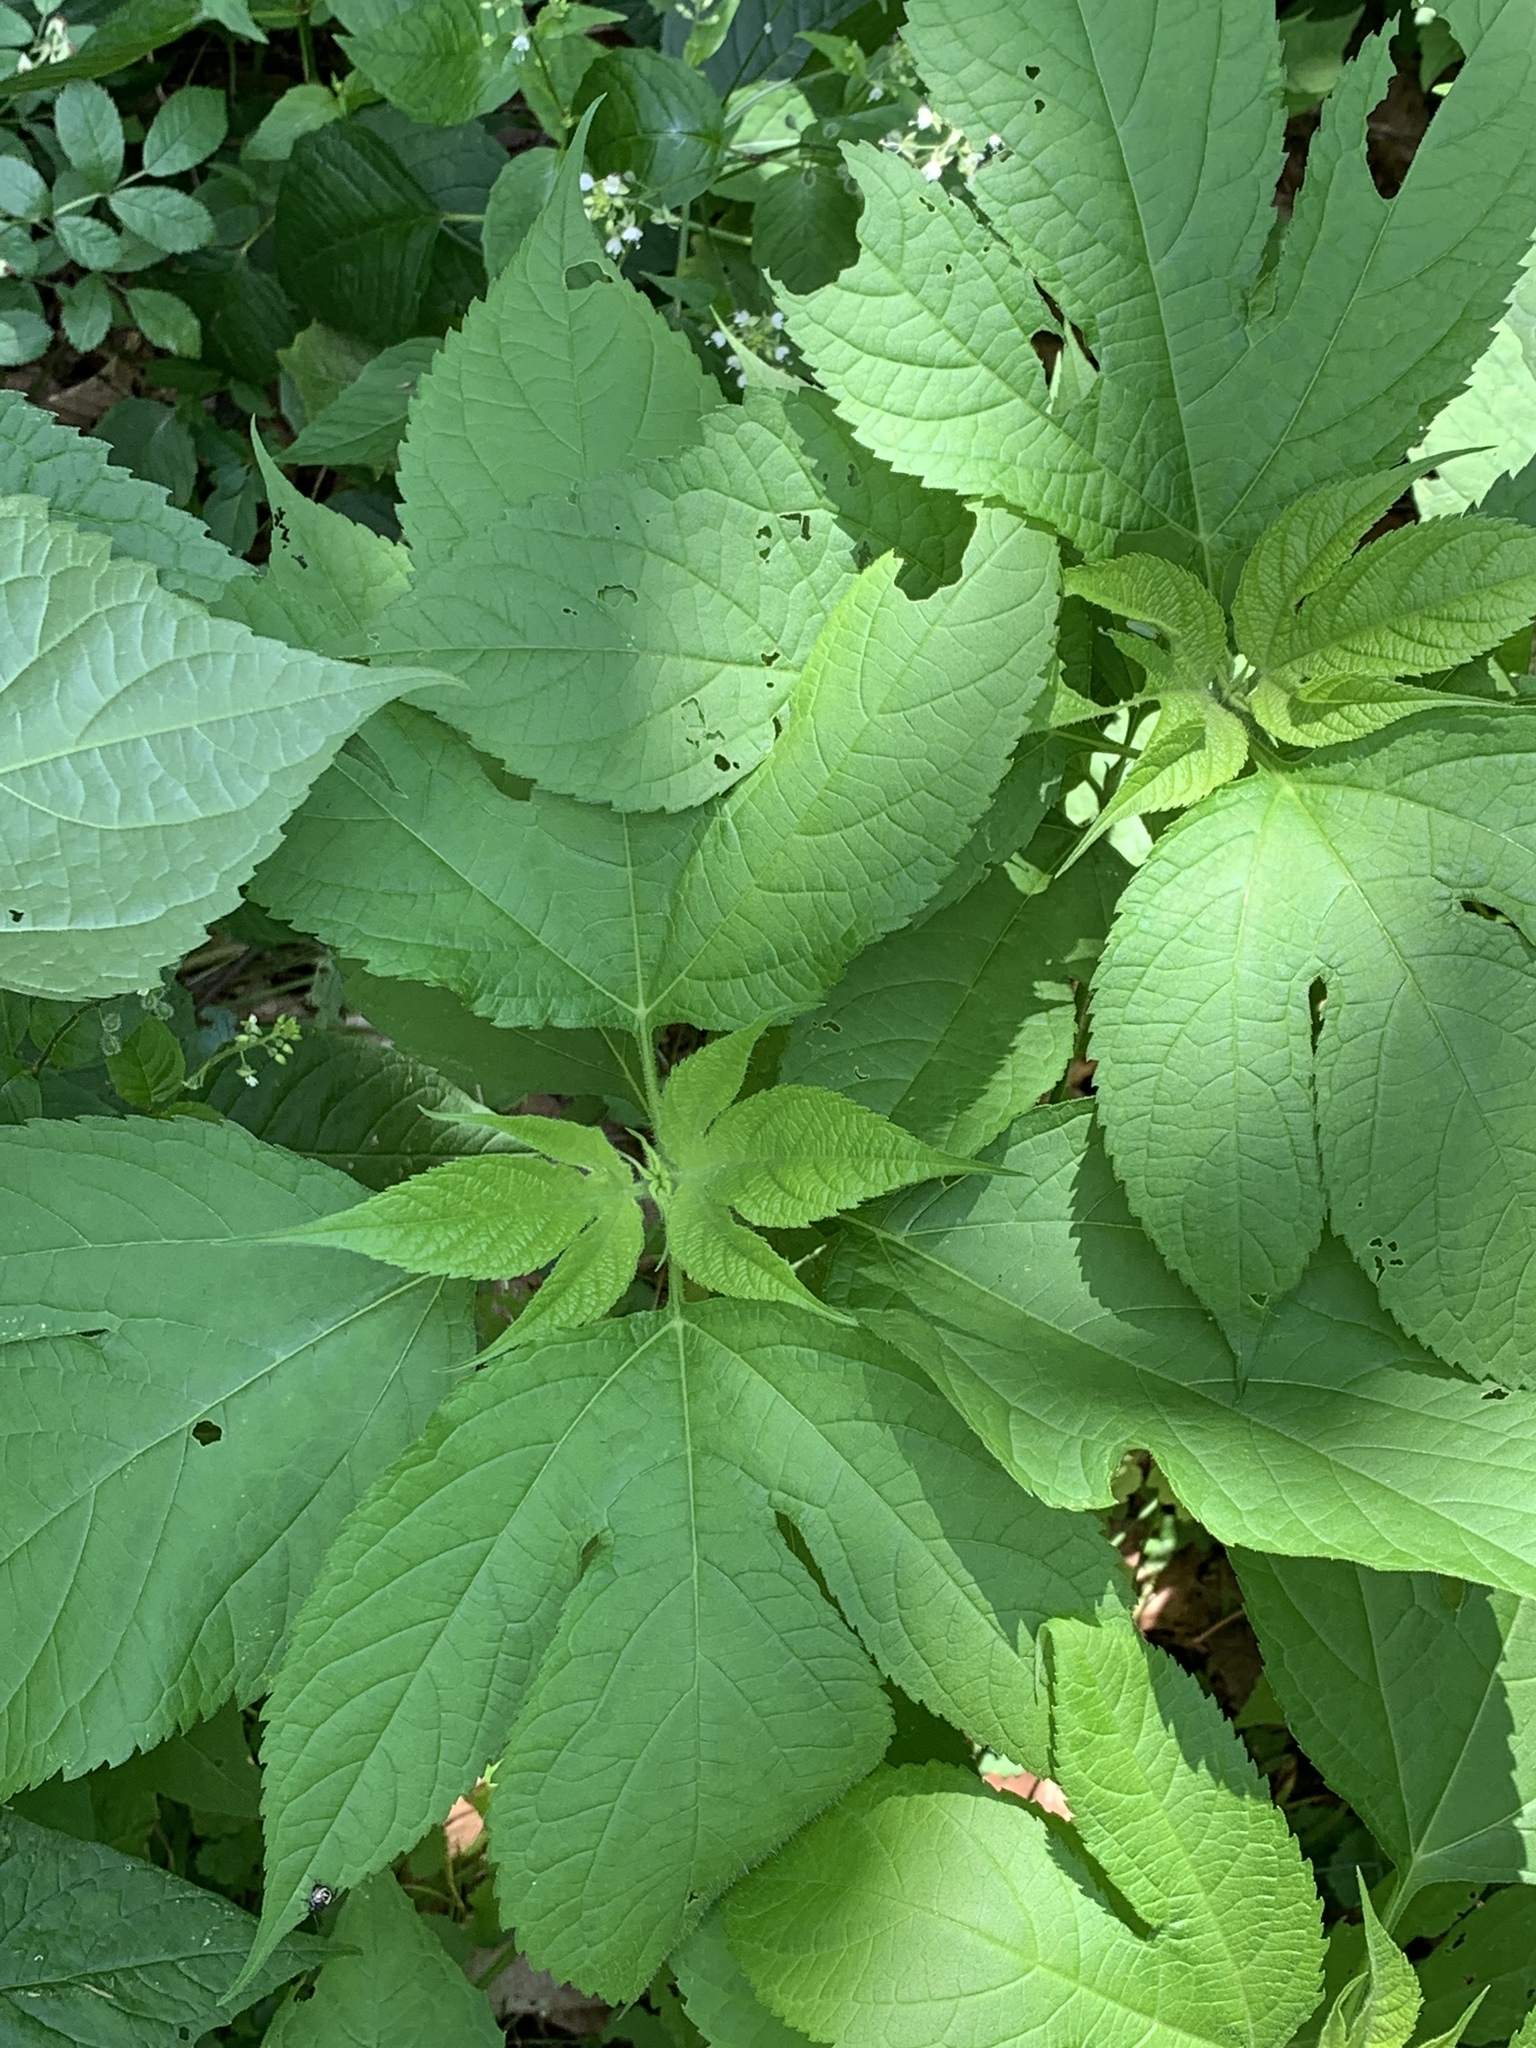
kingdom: Plantae
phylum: Tracheophyta
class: Magnoliopsida
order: Asterales
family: Asteraceae
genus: Ambrosia
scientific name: Ambrosia trifida
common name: Giant ragweed
